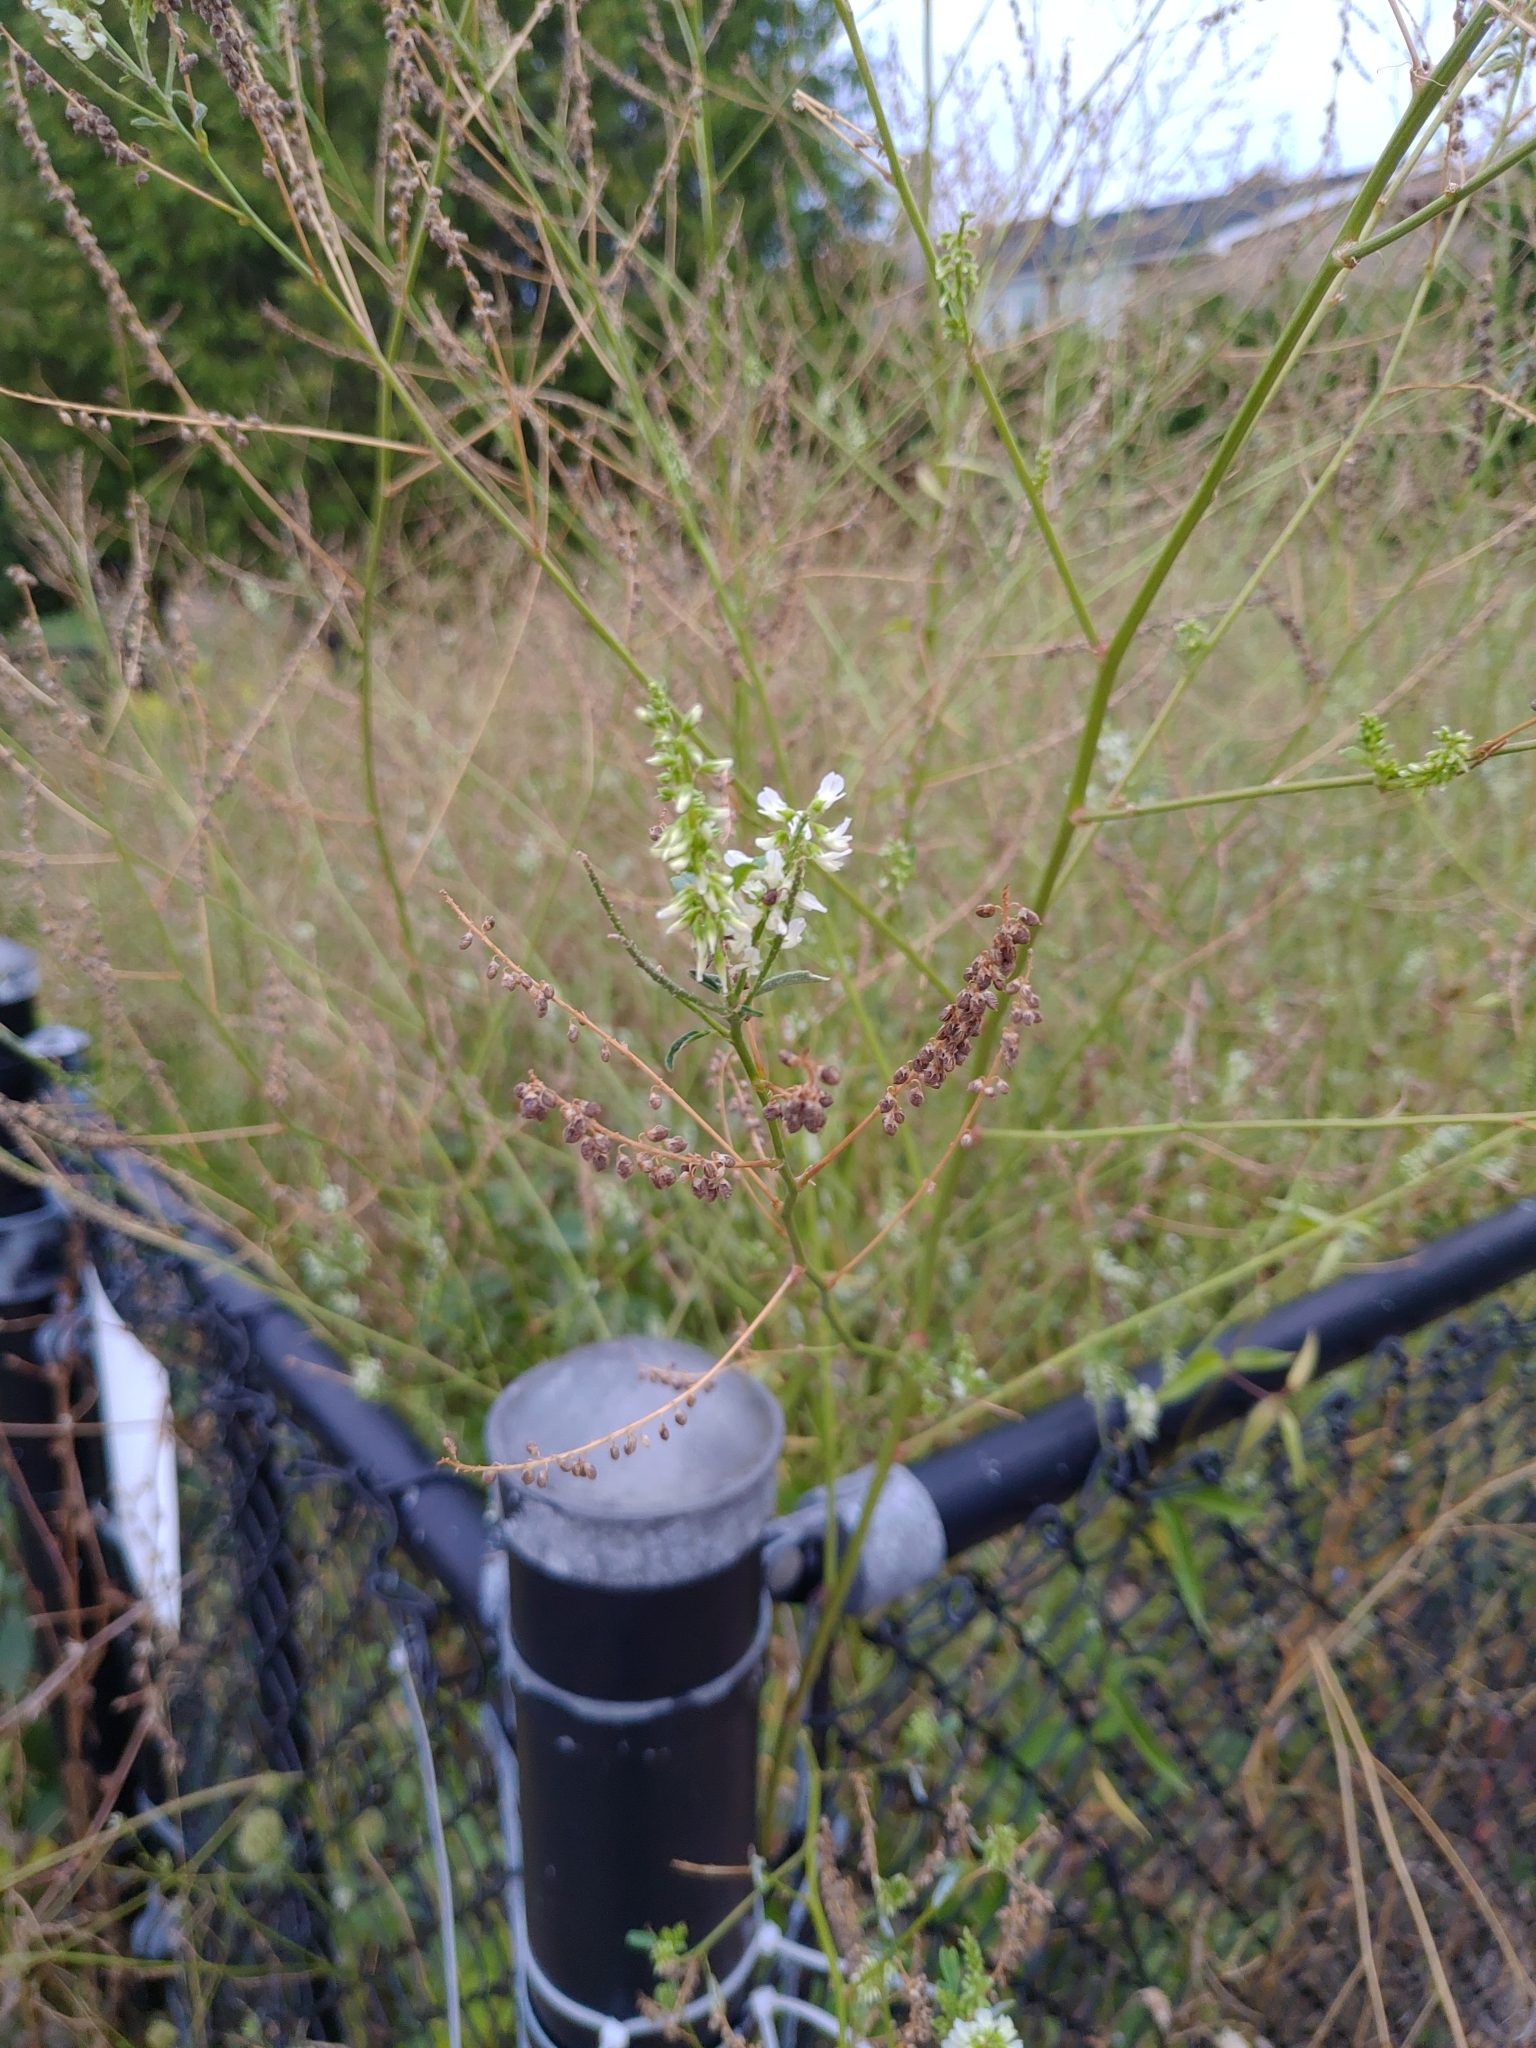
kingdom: Plantae
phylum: Tracheophyta
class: Magnoliopsida
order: Fabales
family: Fabaceae
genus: Melilotus
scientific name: Melilotus albus
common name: White melilot
